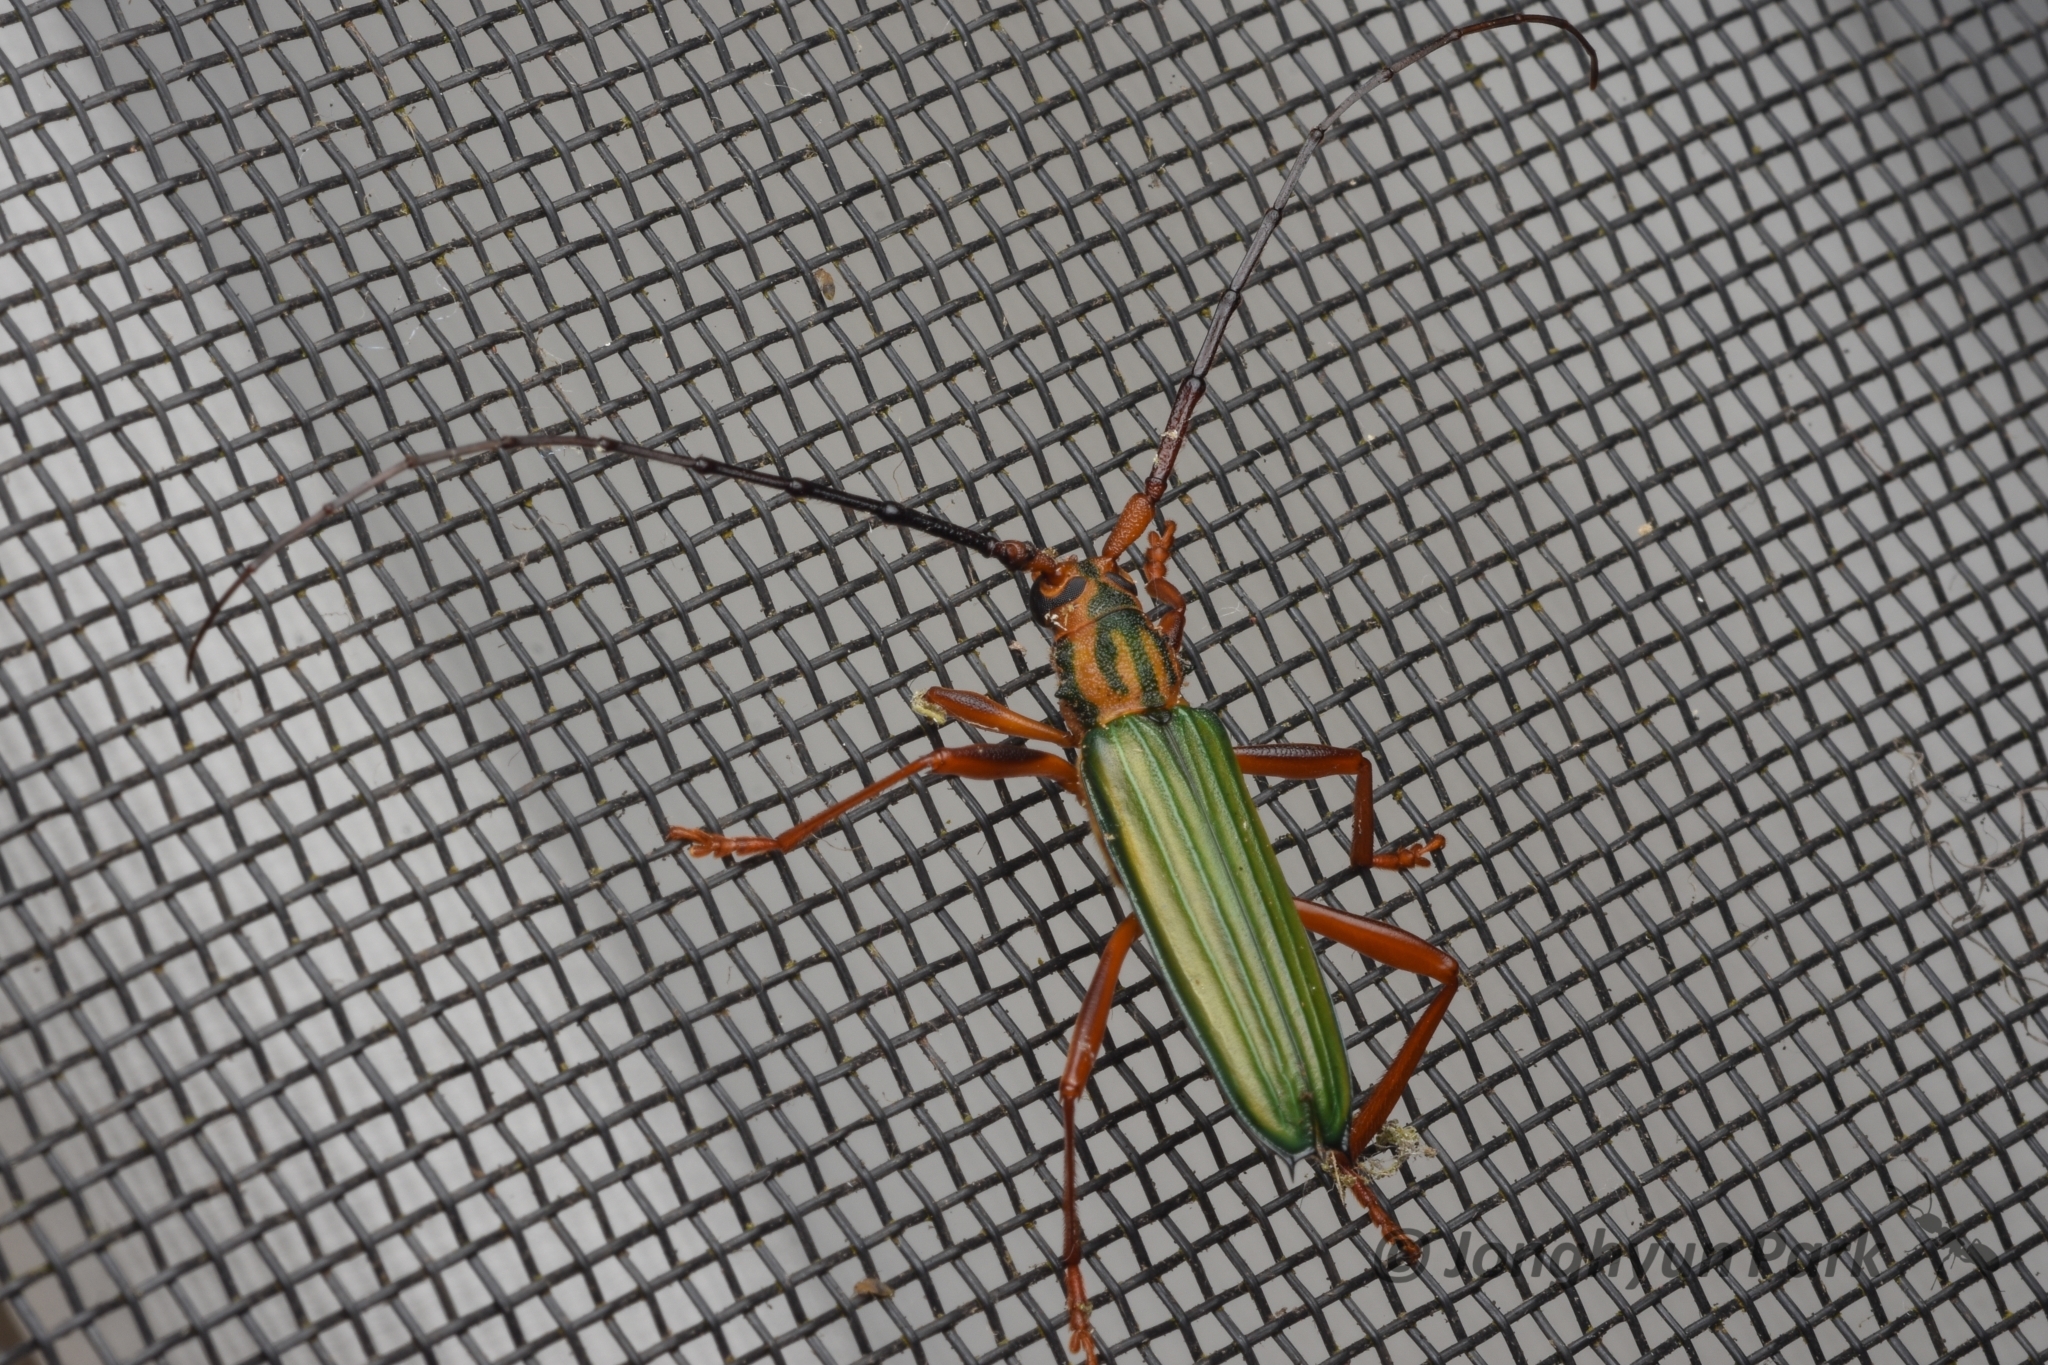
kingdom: Animalia
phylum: Arthropoda
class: Insecta
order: Coleoptera
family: Cerambycidae
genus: Chlorida
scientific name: Chlorida festiva
